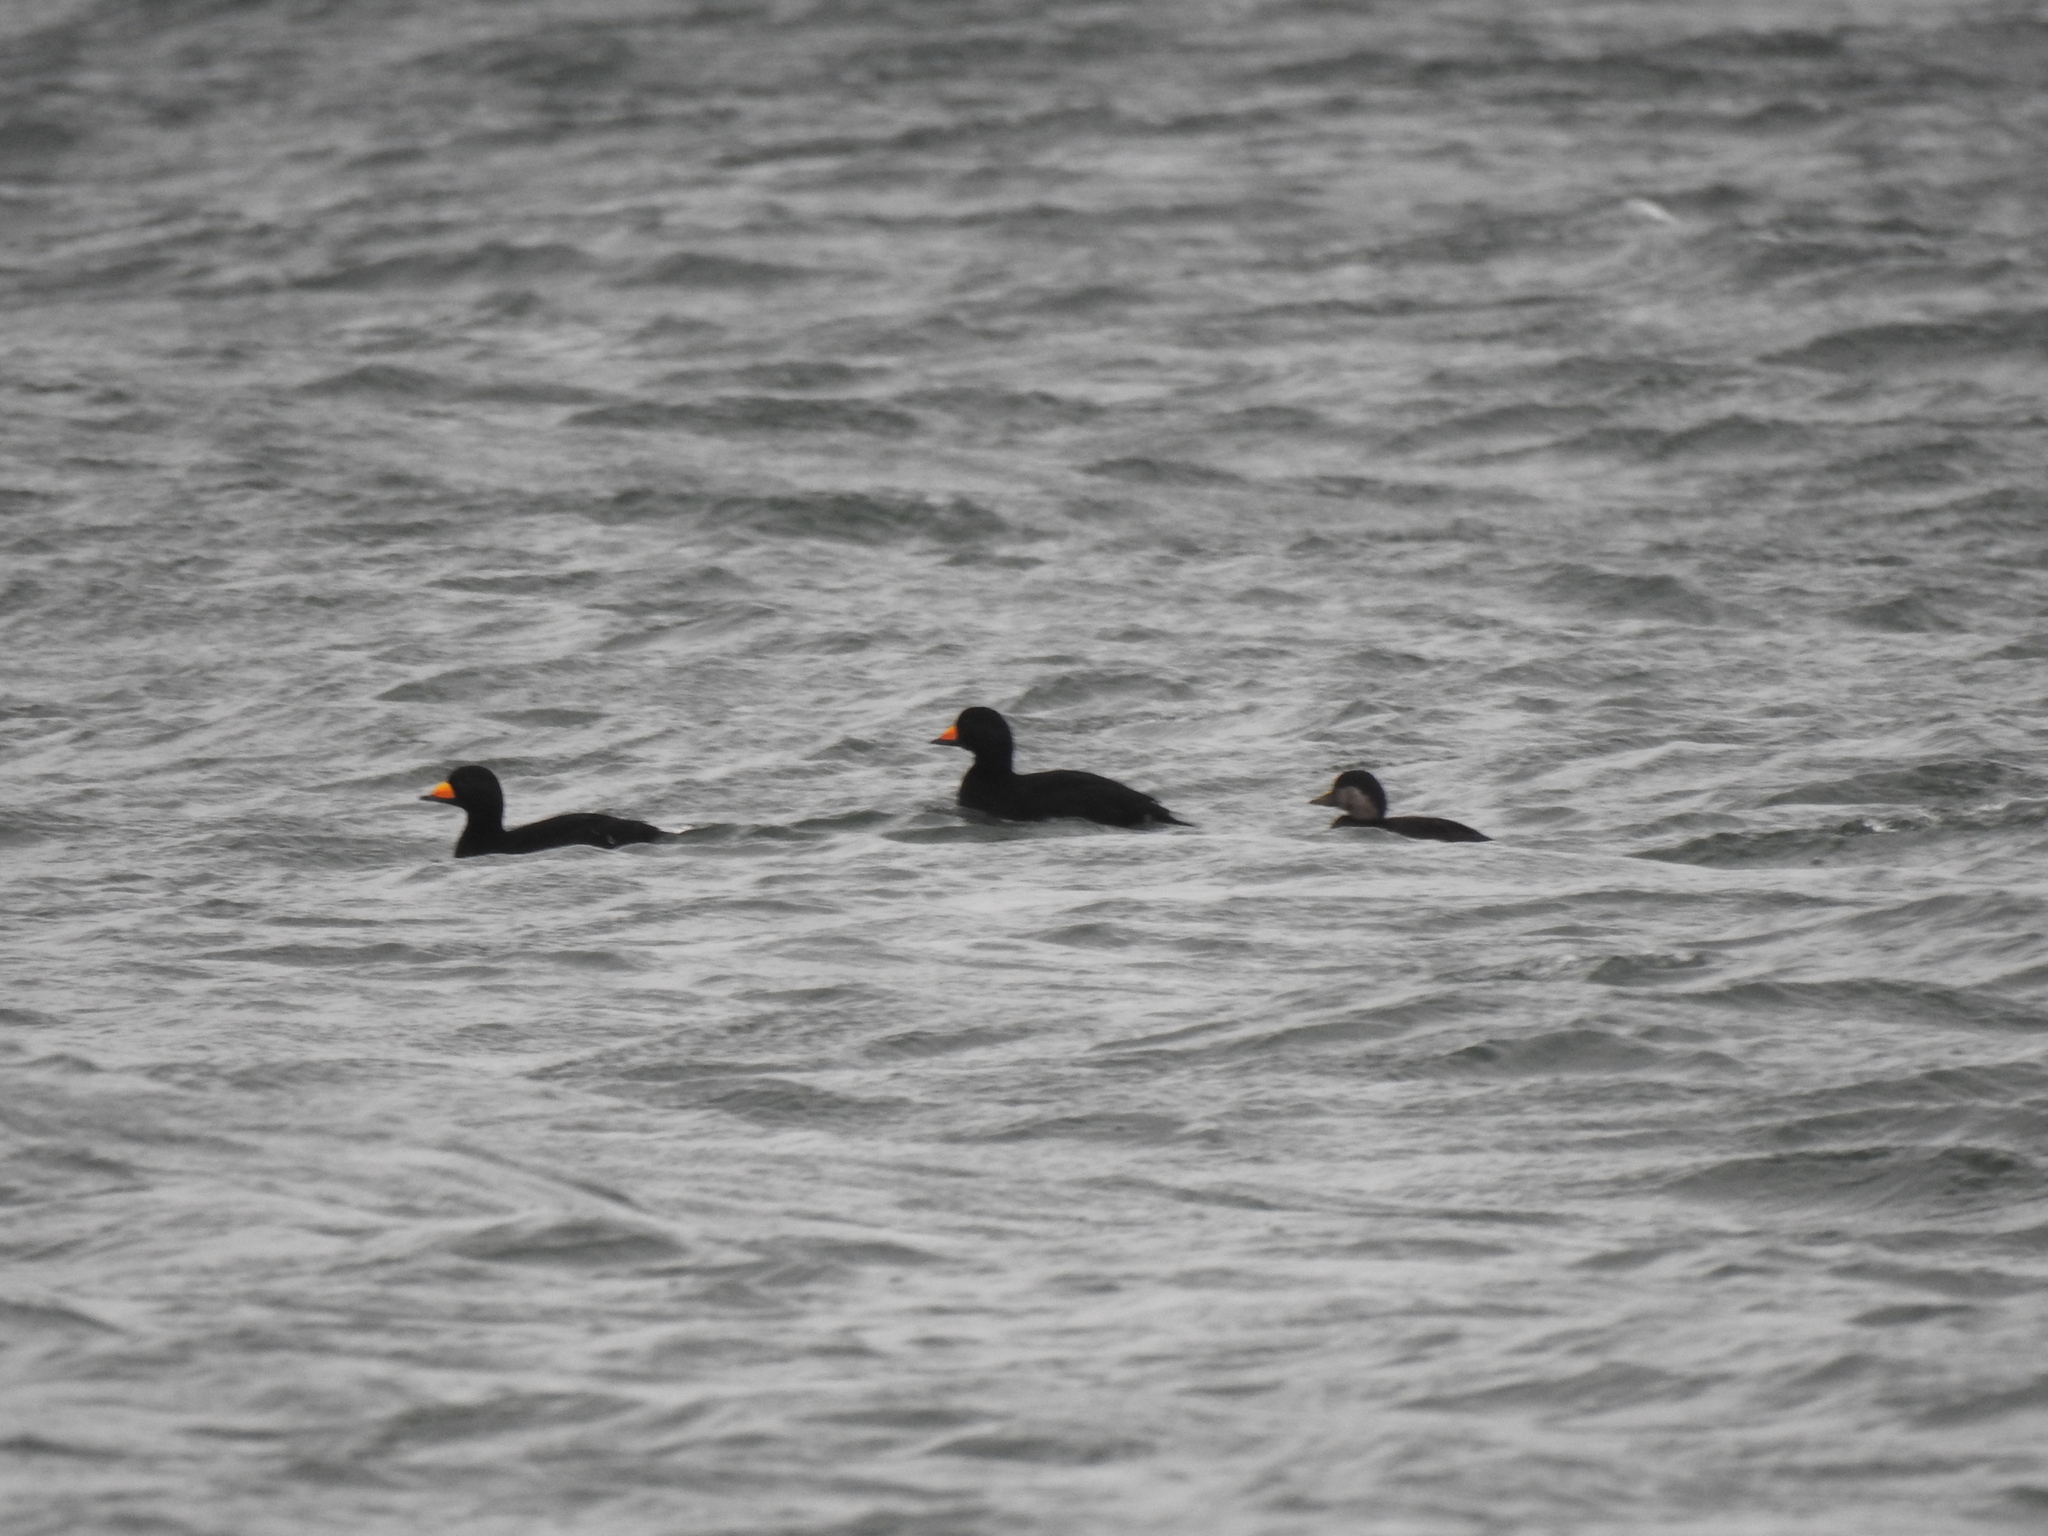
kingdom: Animalia
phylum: Chordata
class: Aves
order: Anseriformes
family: Anatidae
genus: Melanitta
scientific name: Melanitta americana
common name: Black scoter
